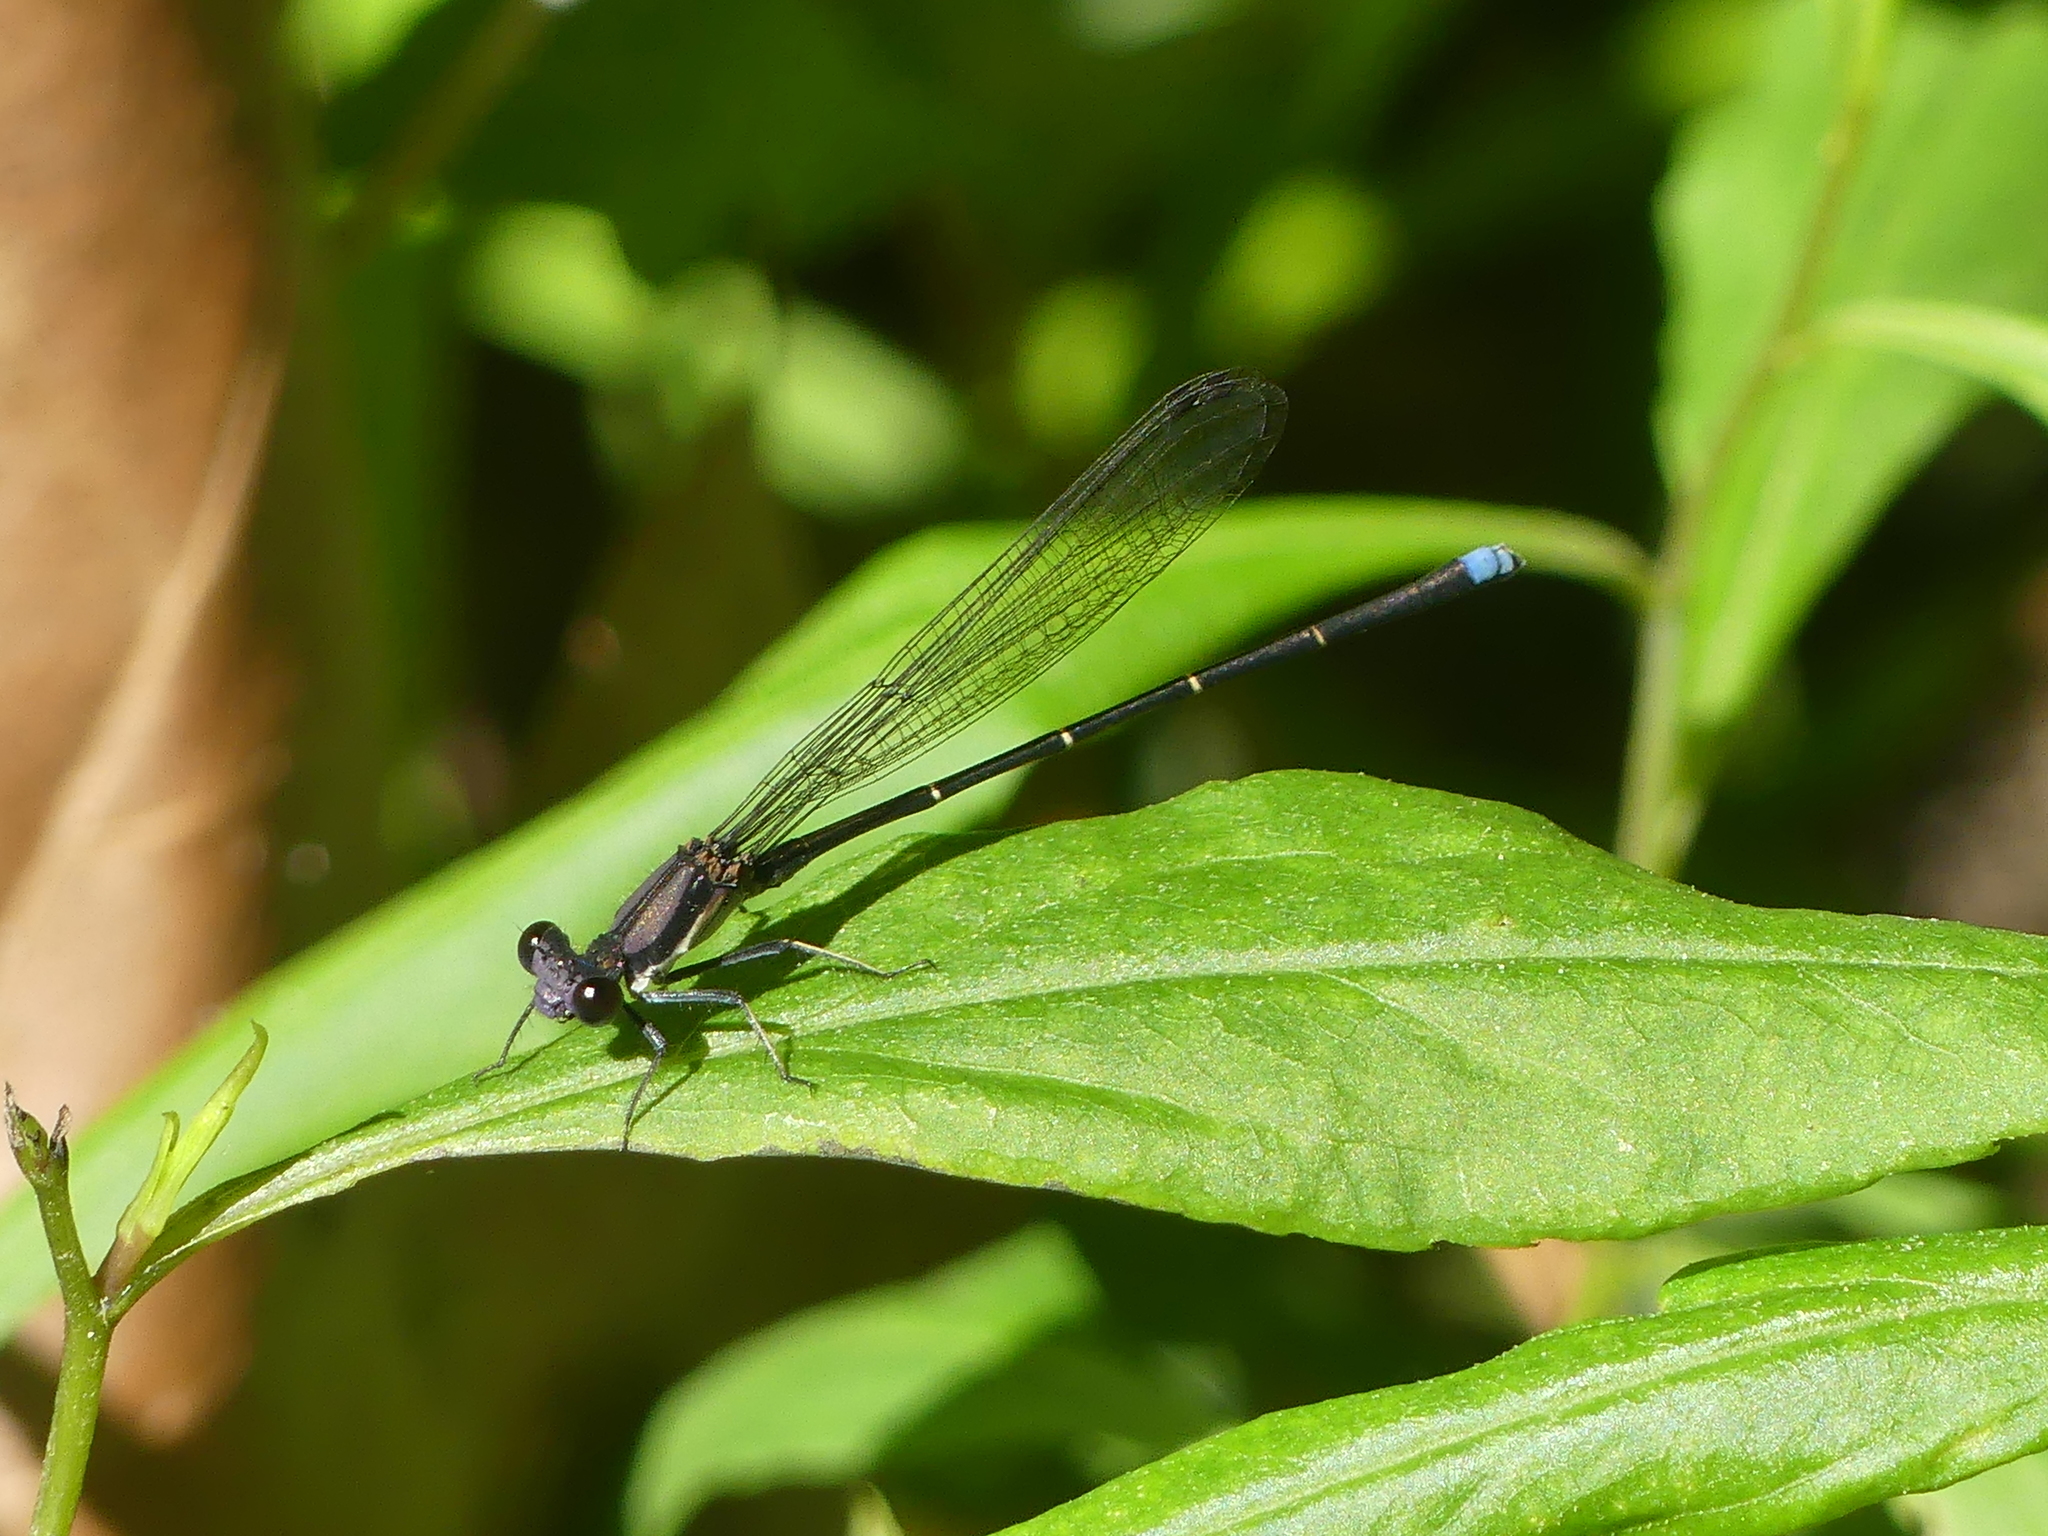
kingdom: Animalia
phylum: Arthropoda
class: Insecta
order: Odonata
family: Coenagrionidae
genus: Argia
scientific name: Argia tibialis
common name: Blue-tipped dancer
